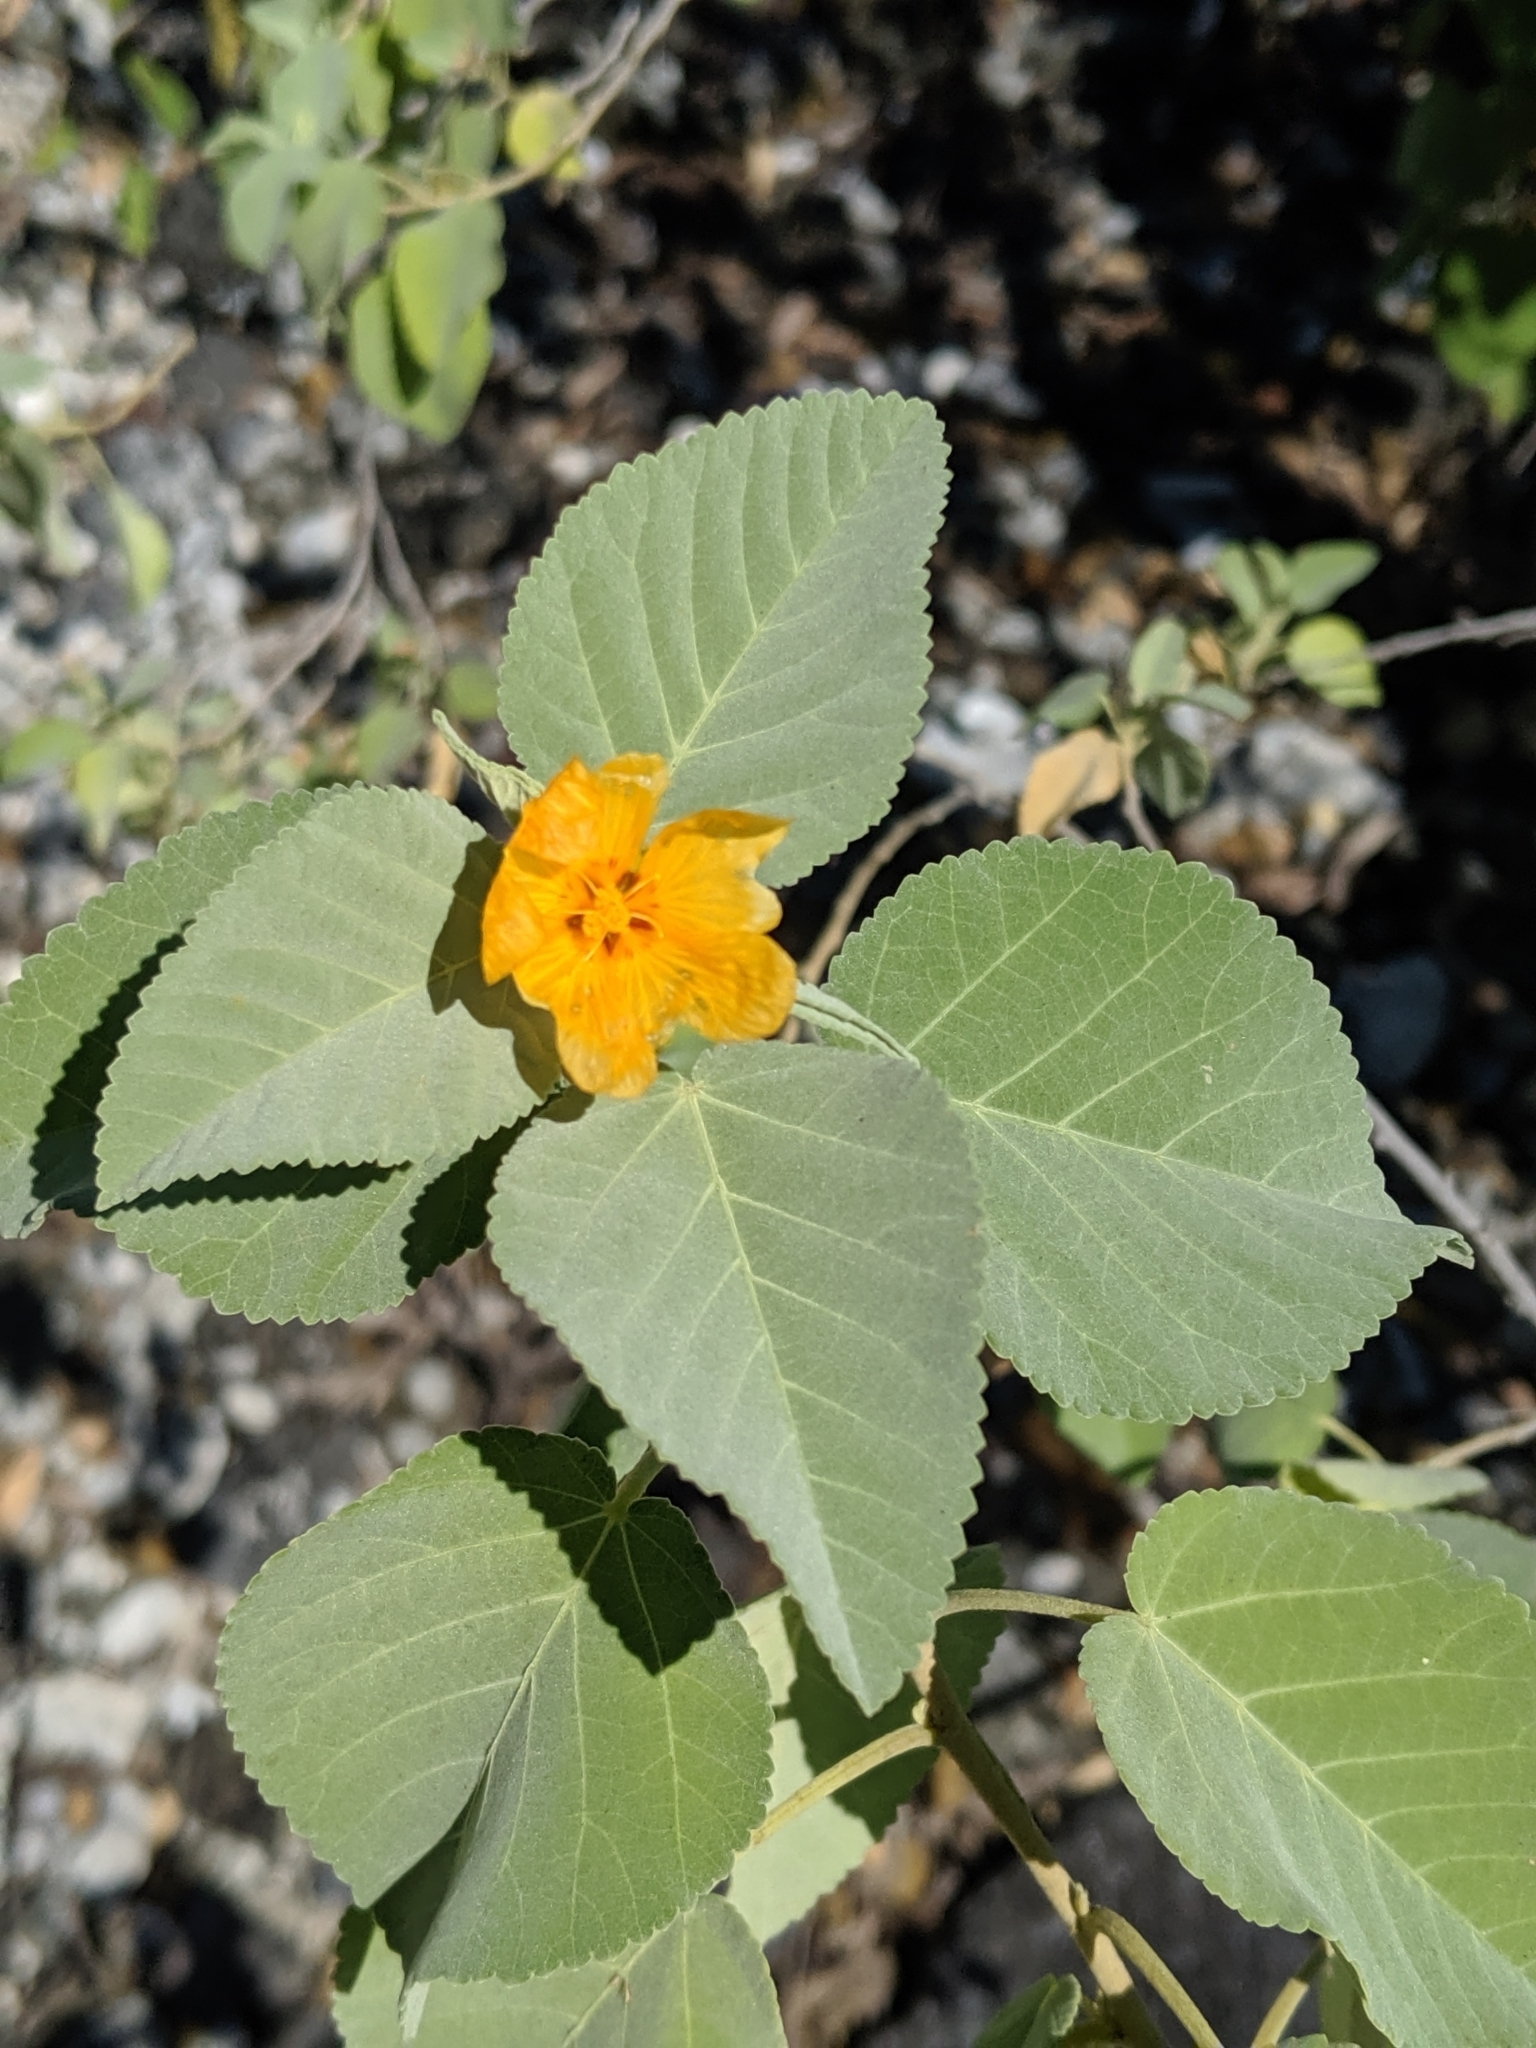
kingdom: Plantae
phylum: Tracheophyta
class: Magnoliopsida
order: Malvales
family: Malvaceae
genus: Sida
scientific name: Sida fallax
